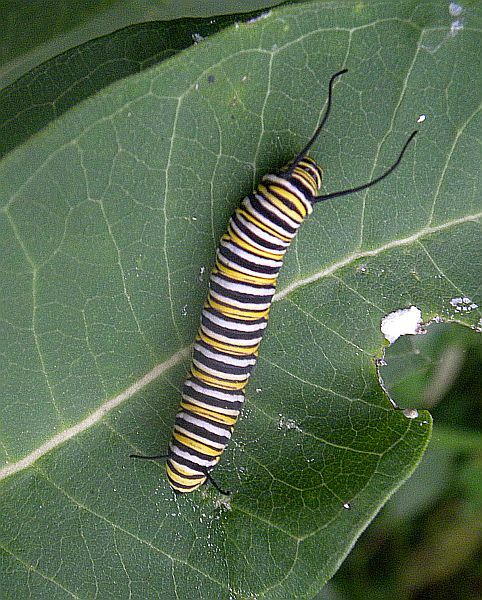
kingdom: Animalia
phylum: Arthropoda
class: Insecta
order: Lepidoptera
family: Nymphalidae
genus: Danaus
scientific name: Danaus plexippus
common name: Monarch
